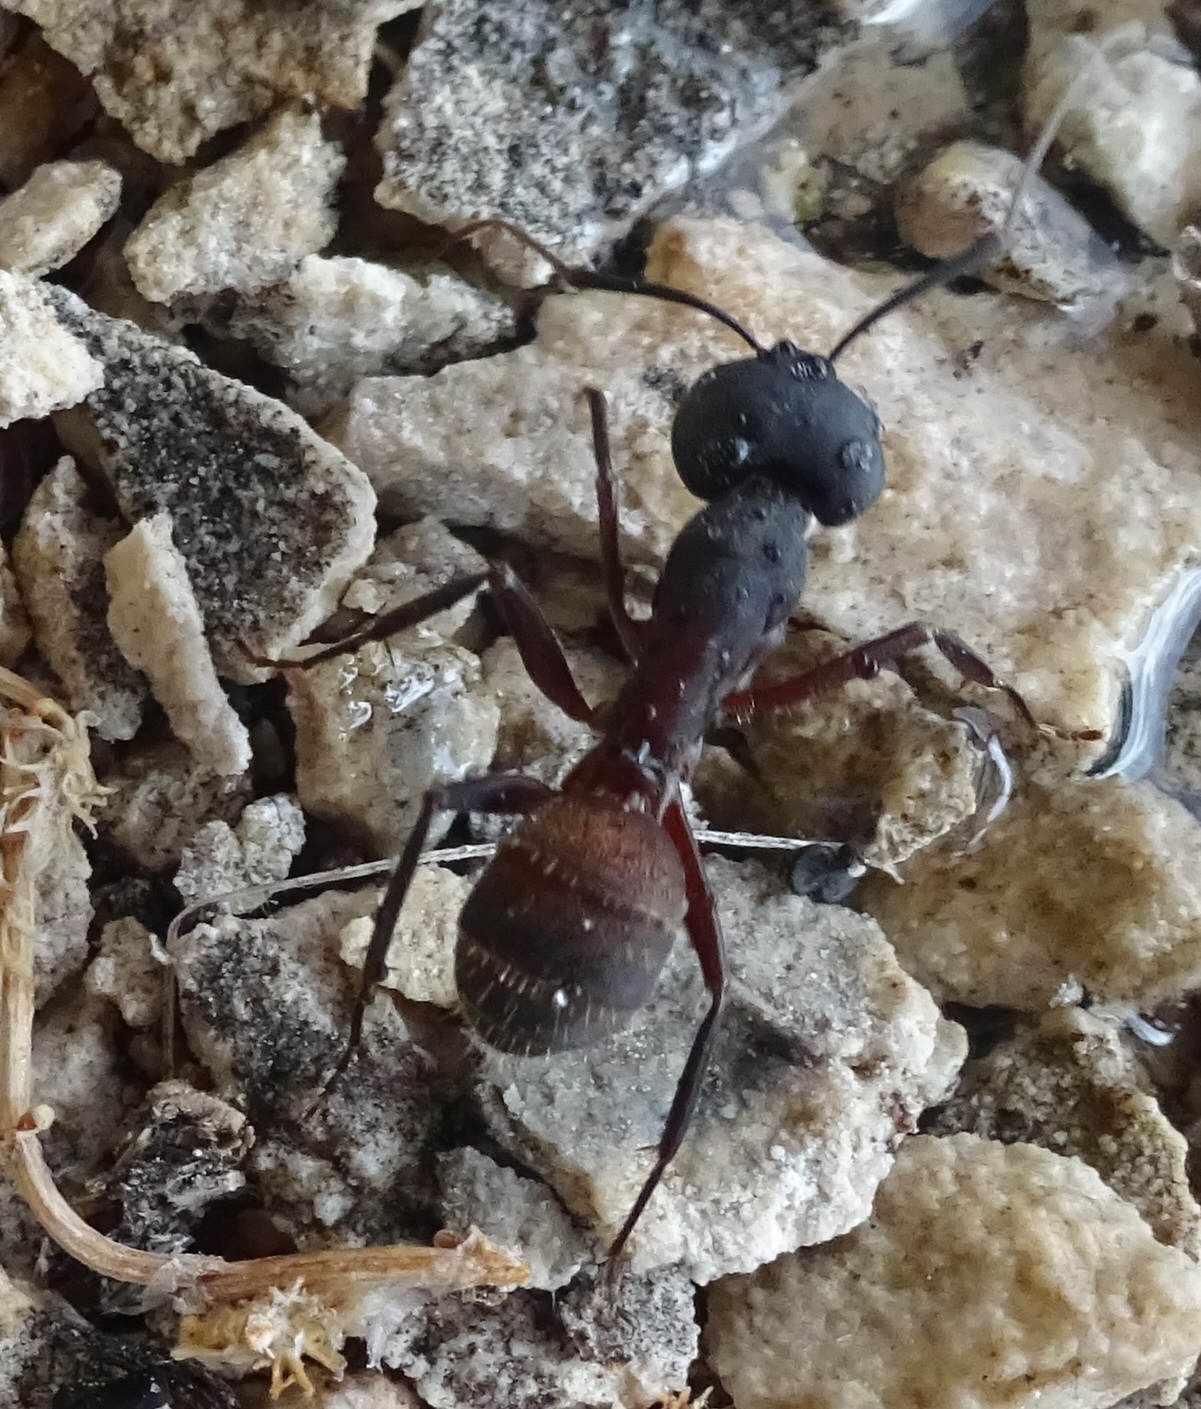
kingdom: Animalia
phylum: Arthropoda
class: Insecta
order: Hymenoptera
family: Formicidae
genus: Camponotus
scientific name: Camponotus cruentatus
